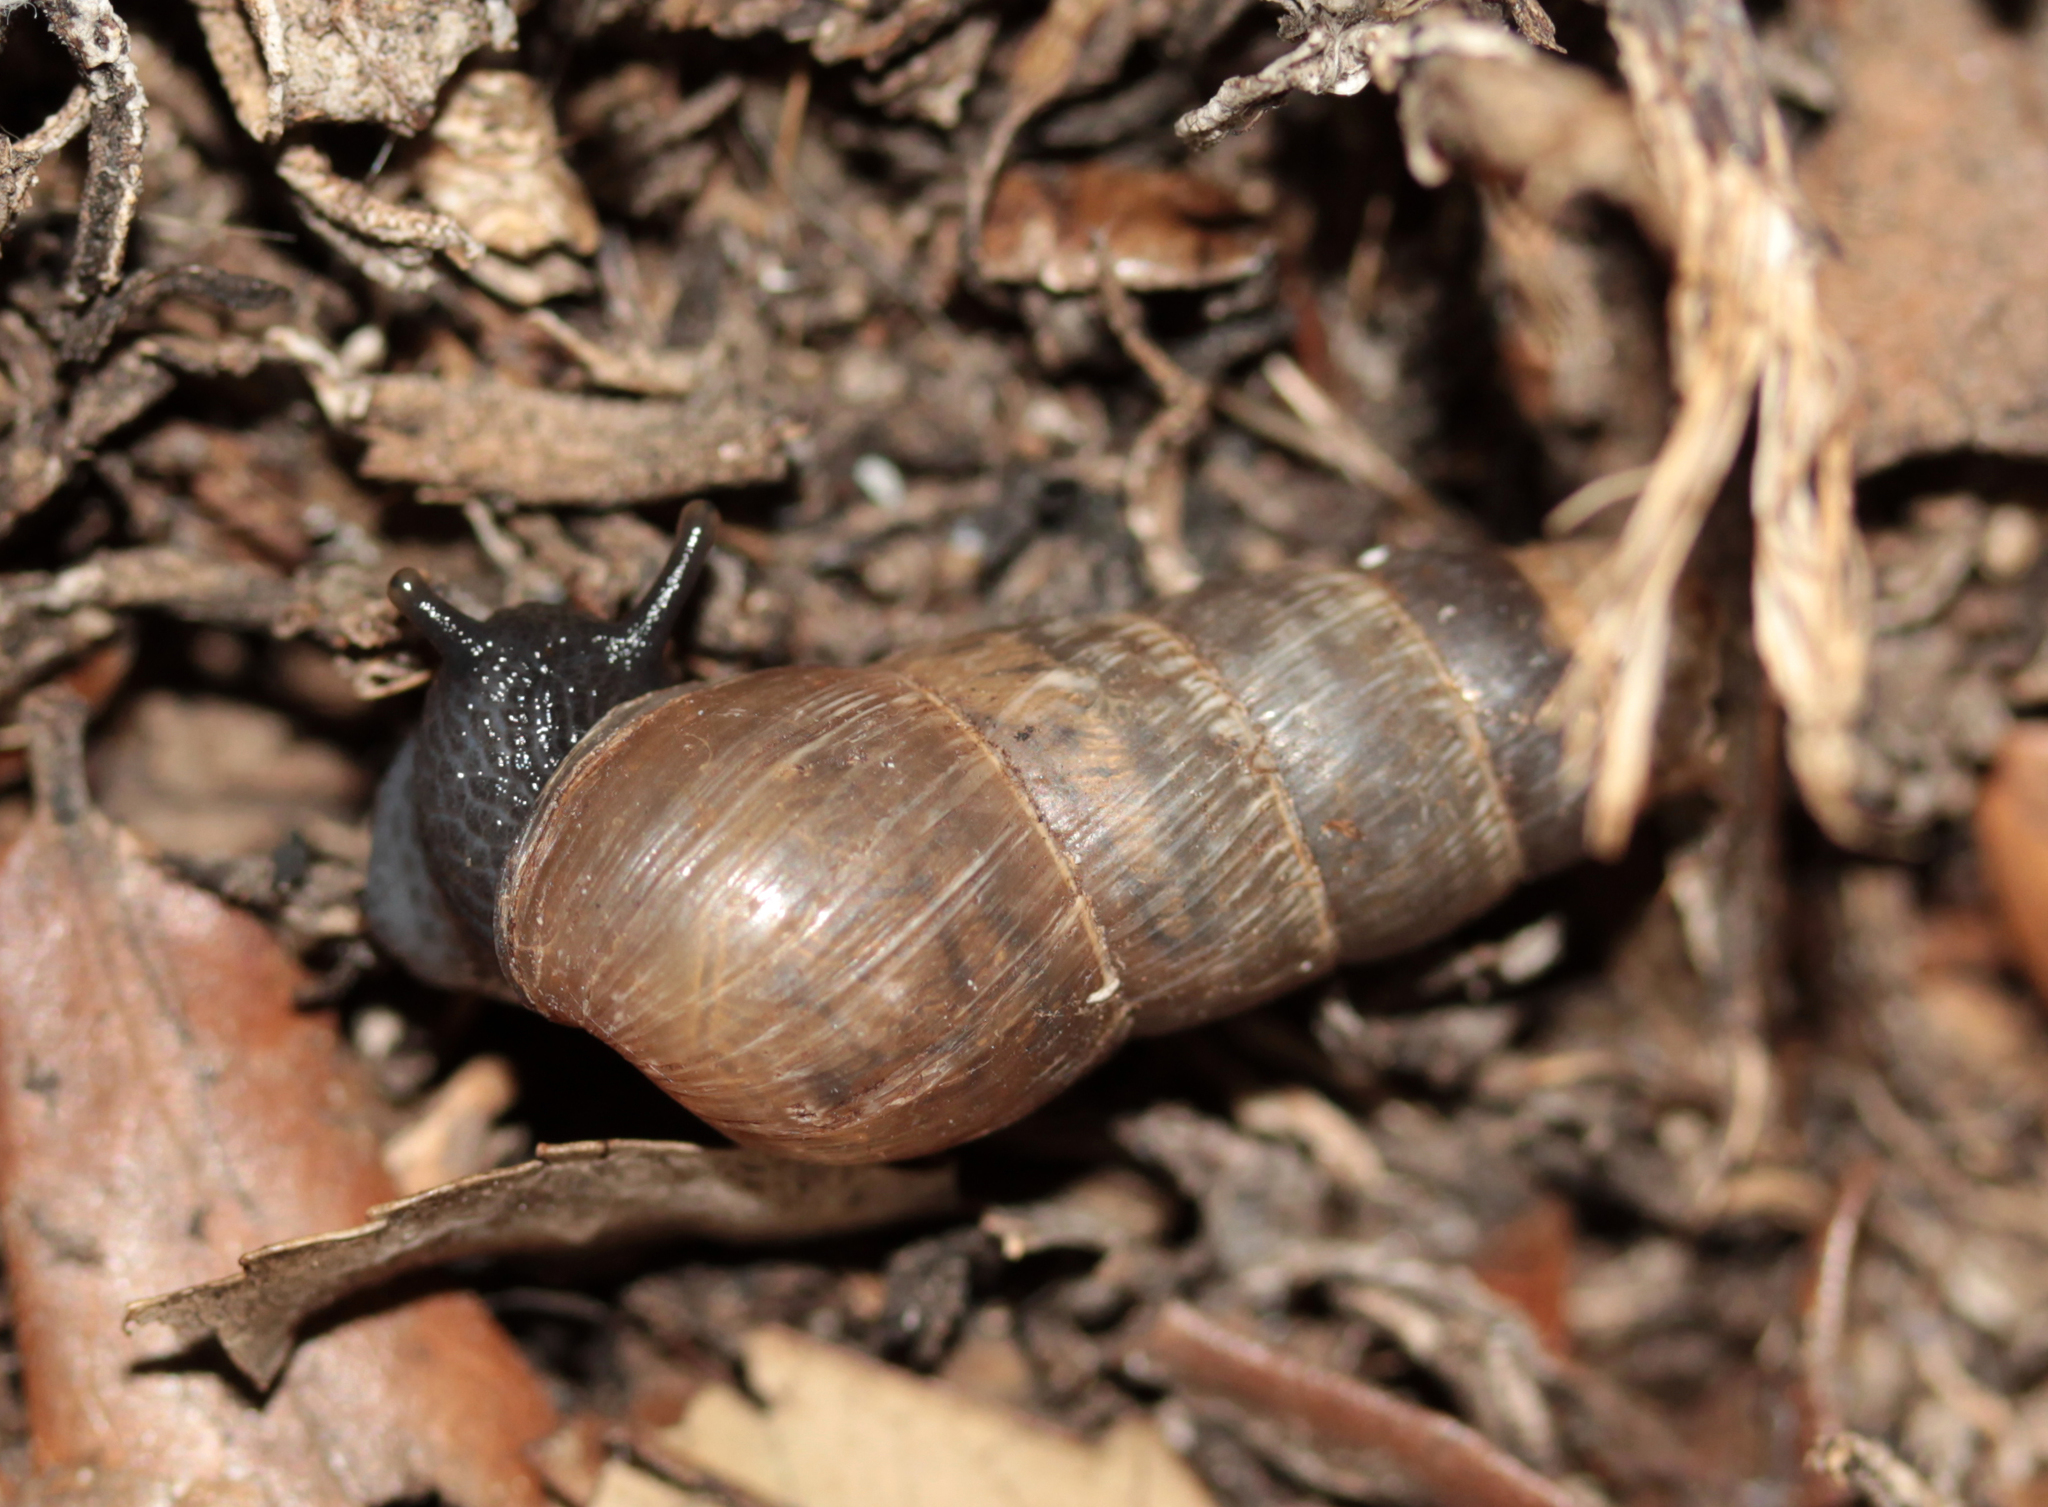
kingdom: Animalia
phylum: Mollusca
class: Gastropoda
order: Stylommatophora
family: Achatinidae
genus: Rumina
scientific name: Rumina decollata
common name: Decollate snail
